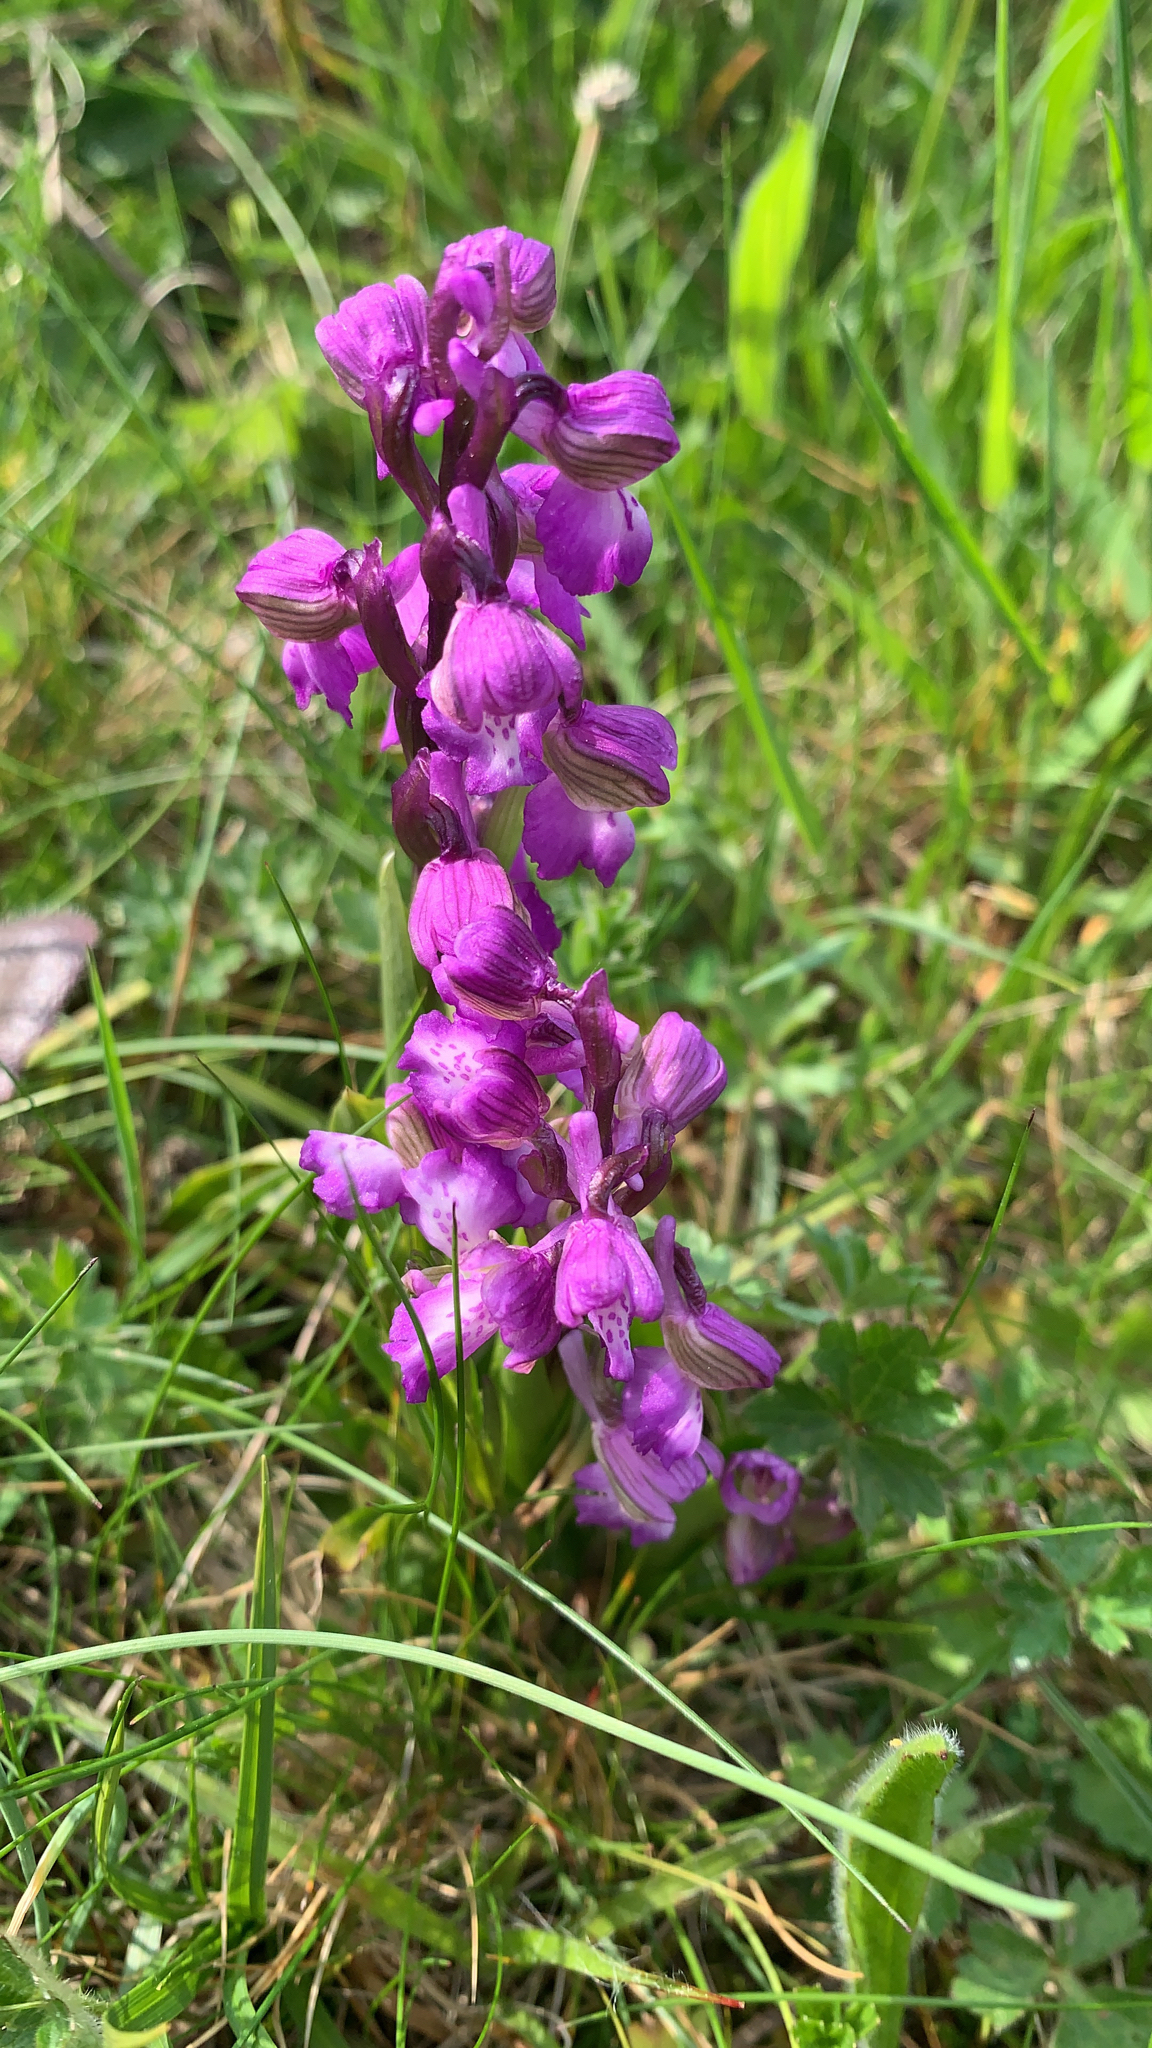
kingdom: Plantae
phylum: Tracheophyta
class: Liliopsida
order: Asparagales
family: Orchidaceae
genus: Anacamptis
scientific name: Anacamptis morio
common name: Green-winged orchid
